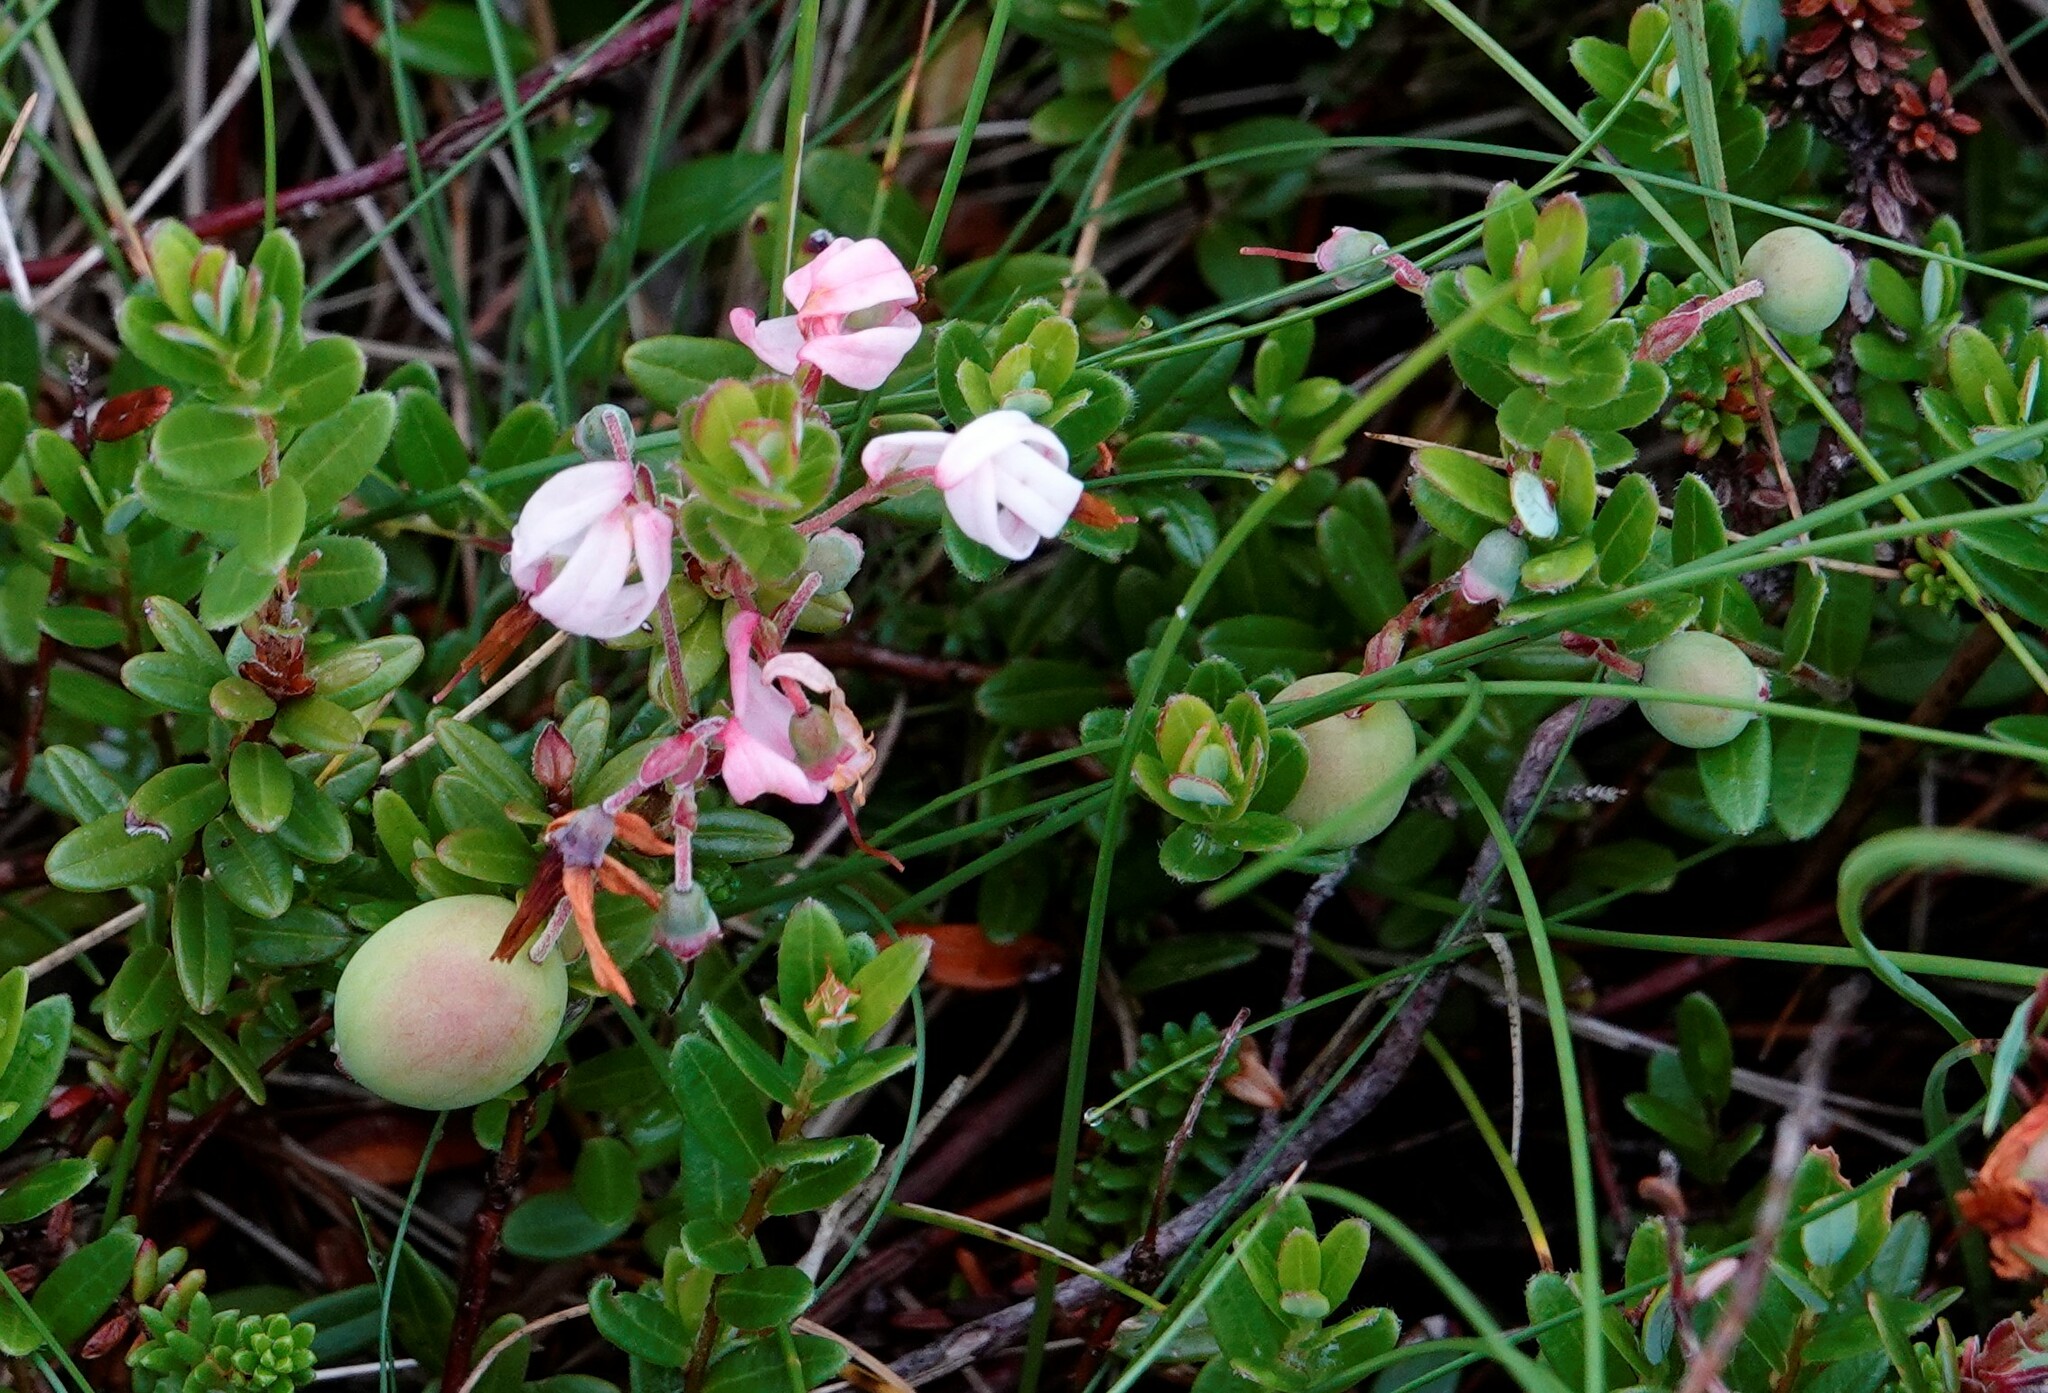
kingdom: Plantae
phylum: Tracheophyta
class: Magnoliopsida
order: Ericales
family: Ericaceae
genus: Vaccinium
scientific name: Vaccinium macrocarpon
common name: American cranberry
